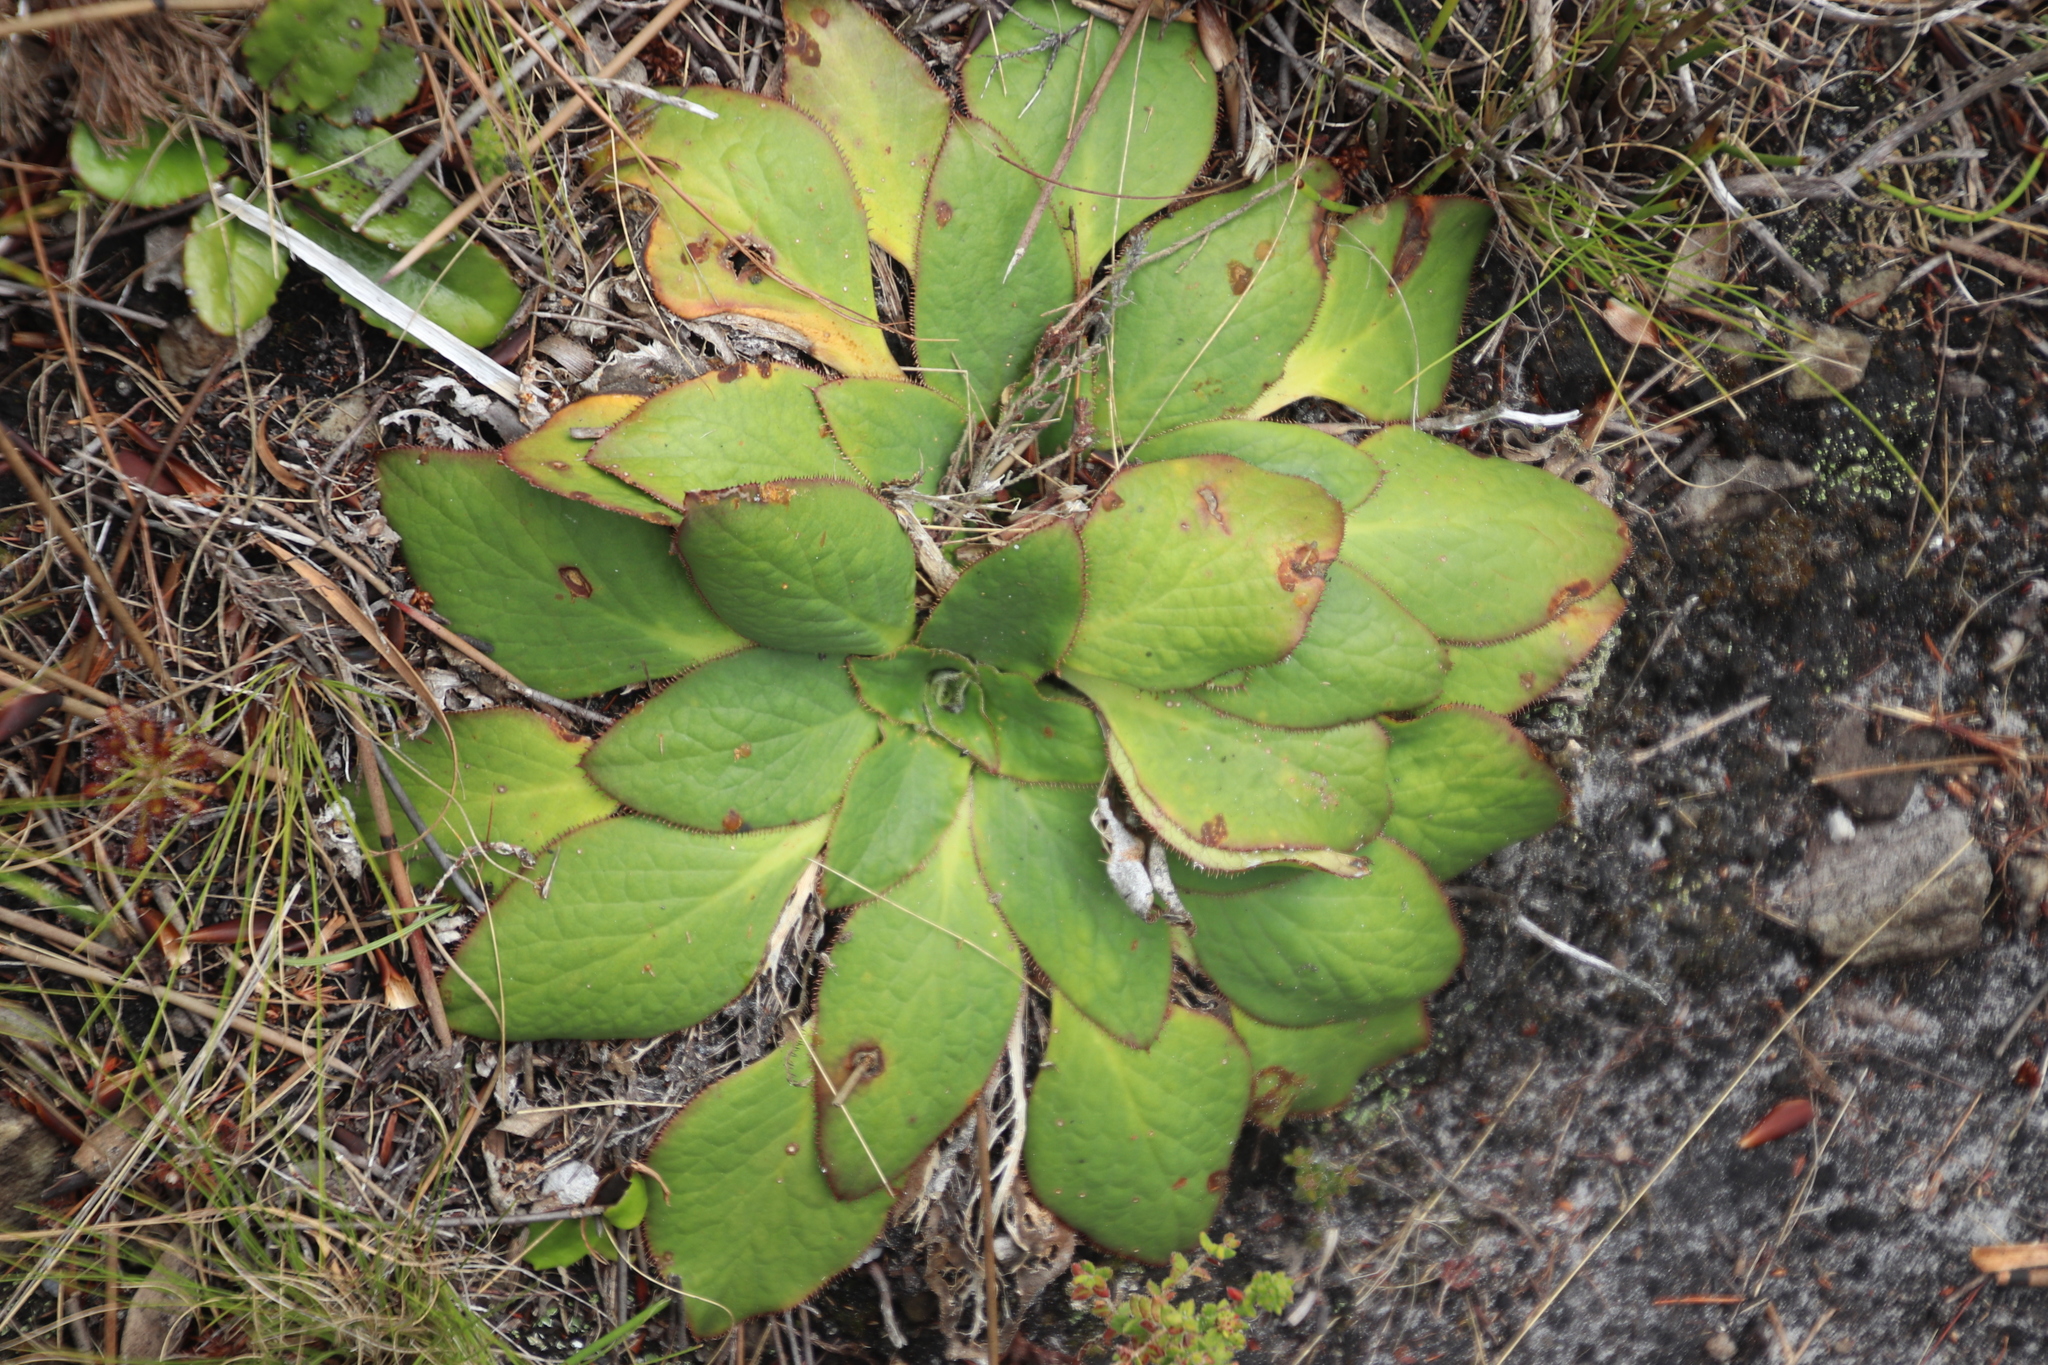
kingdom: Plantae
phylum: Tracheophyta
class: Magnoliopsida
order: Apiales
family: Apiaceae
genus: Hermas
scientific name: Hermas ciliata
